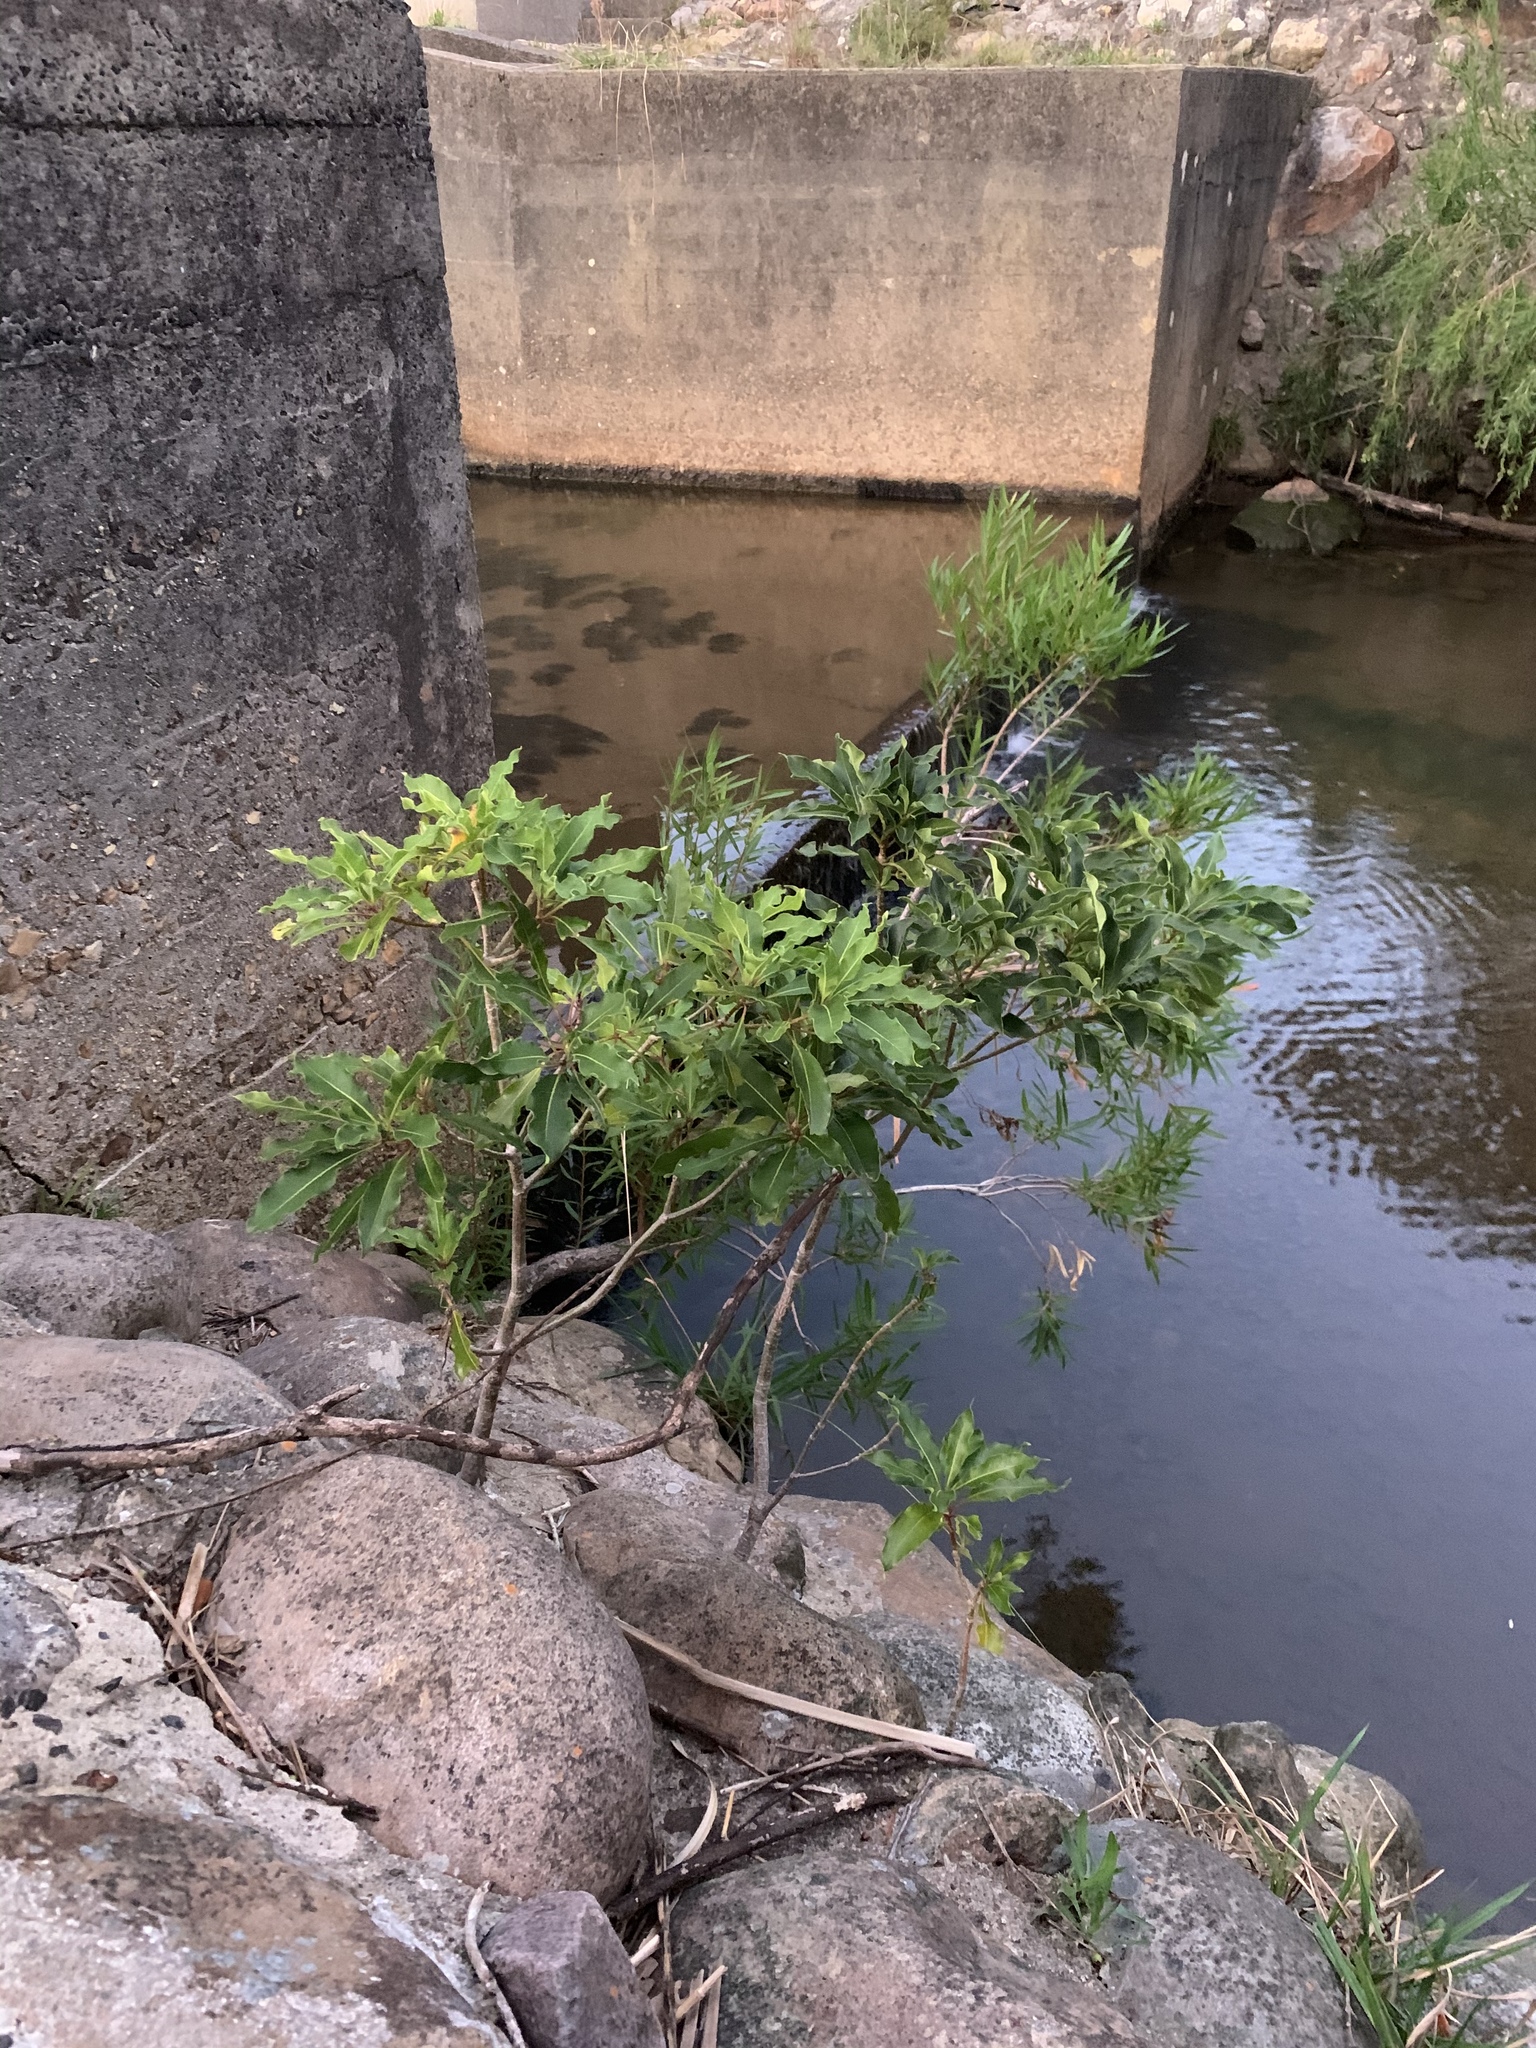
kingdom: Plantae
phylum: Tracheophyta
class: Magnoliopsida
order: Apiales
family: Pittosporaceae
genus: Pittosporum
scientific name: Pittosporum undulatum
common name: Australian cheesewood
